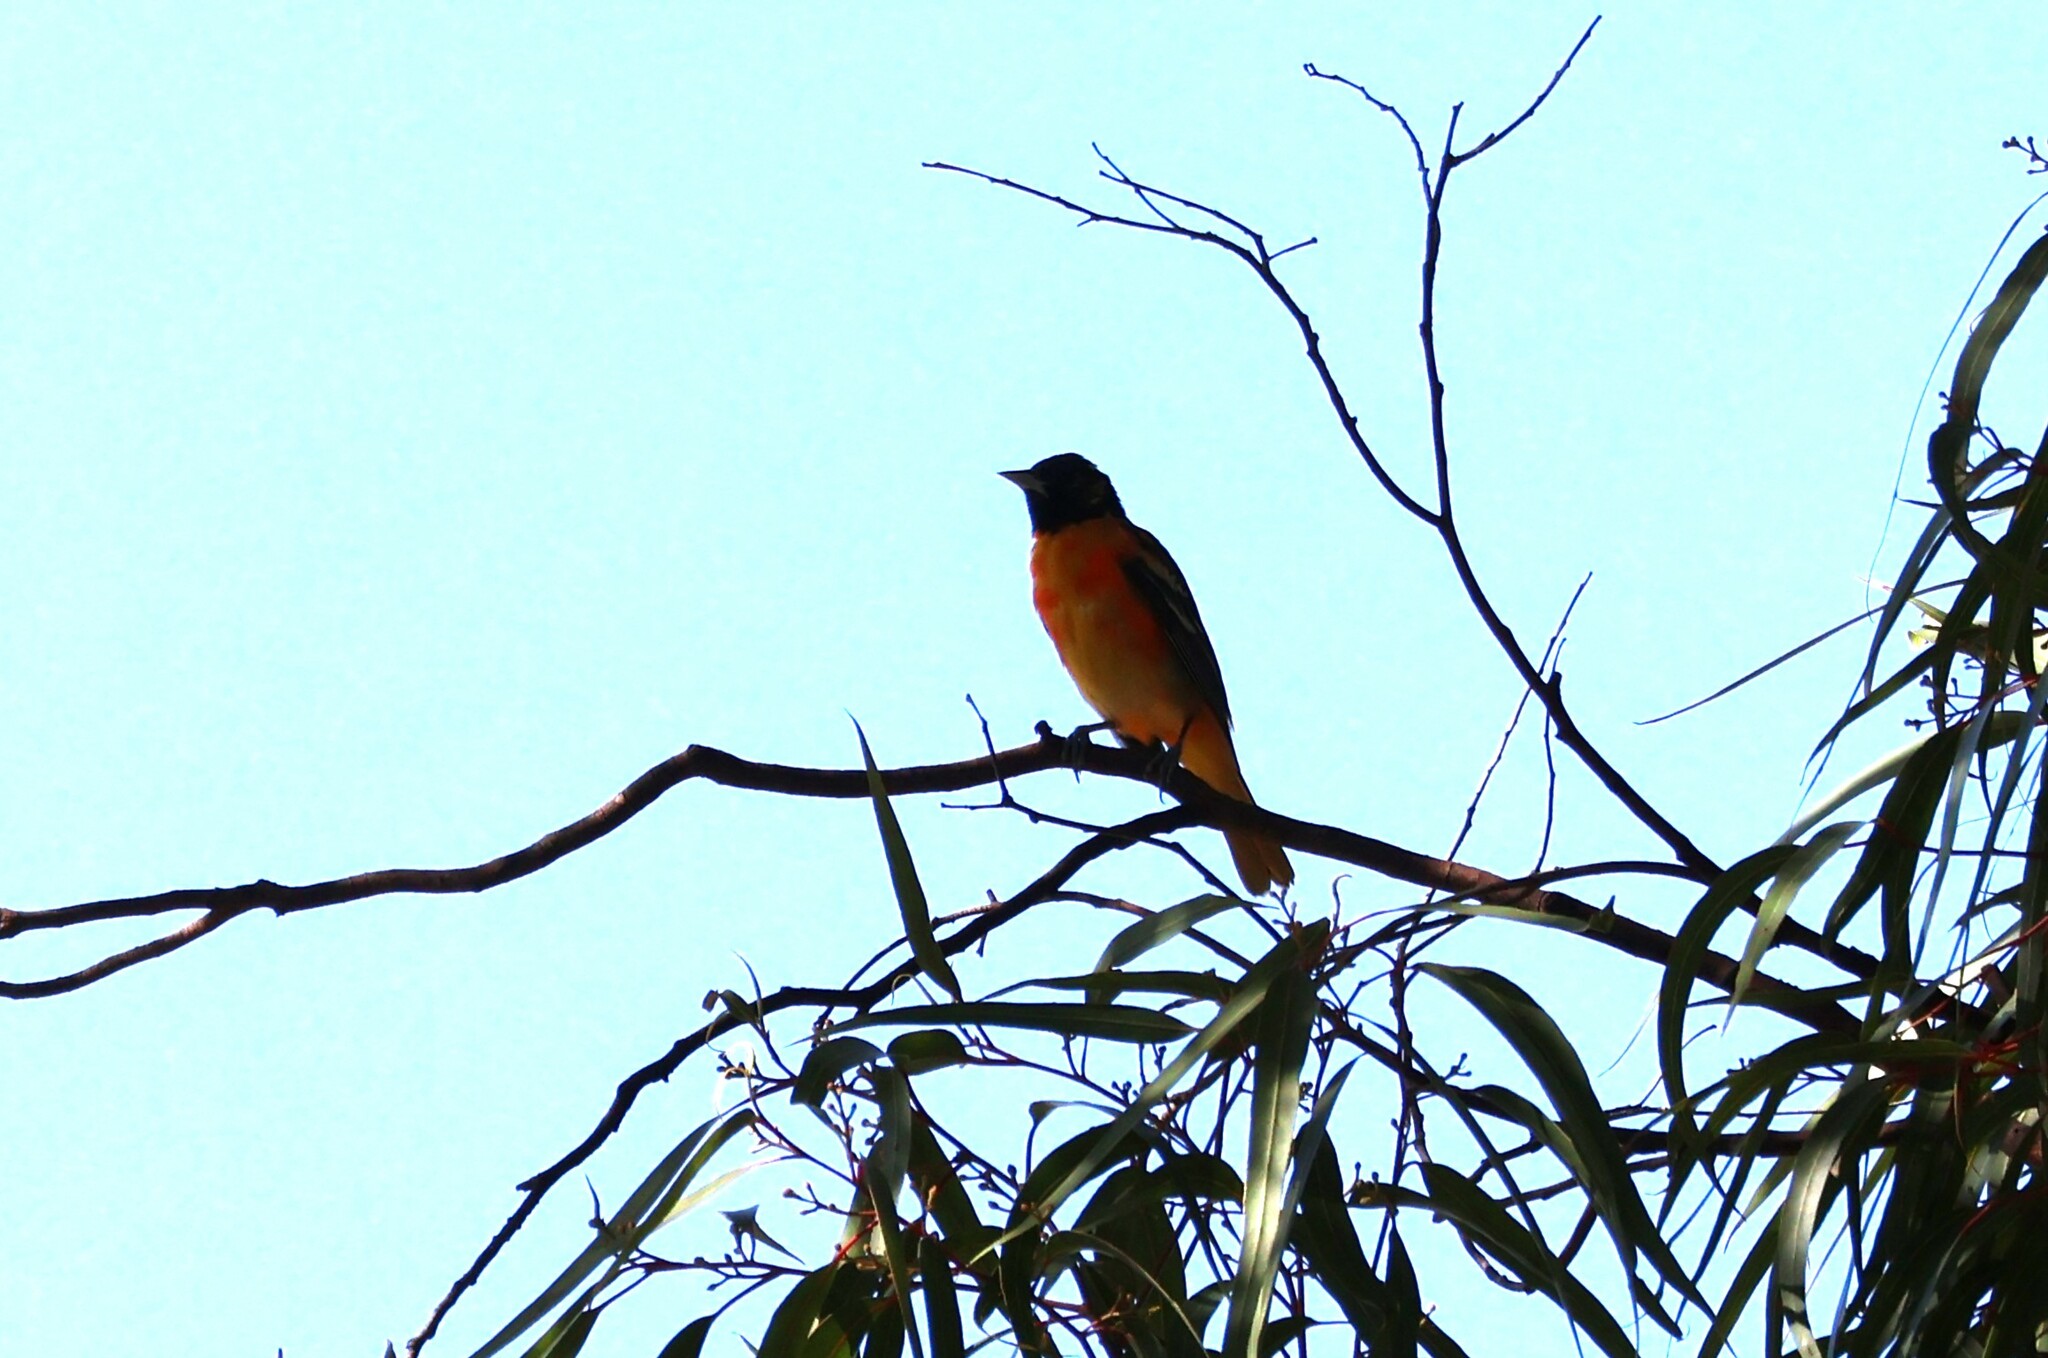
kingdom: Animalia
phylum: Chordata
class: Aves
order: Passeriformes
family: Icteridae
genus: Icterus
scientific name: Icterus galbula
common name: Baltimore oriole
